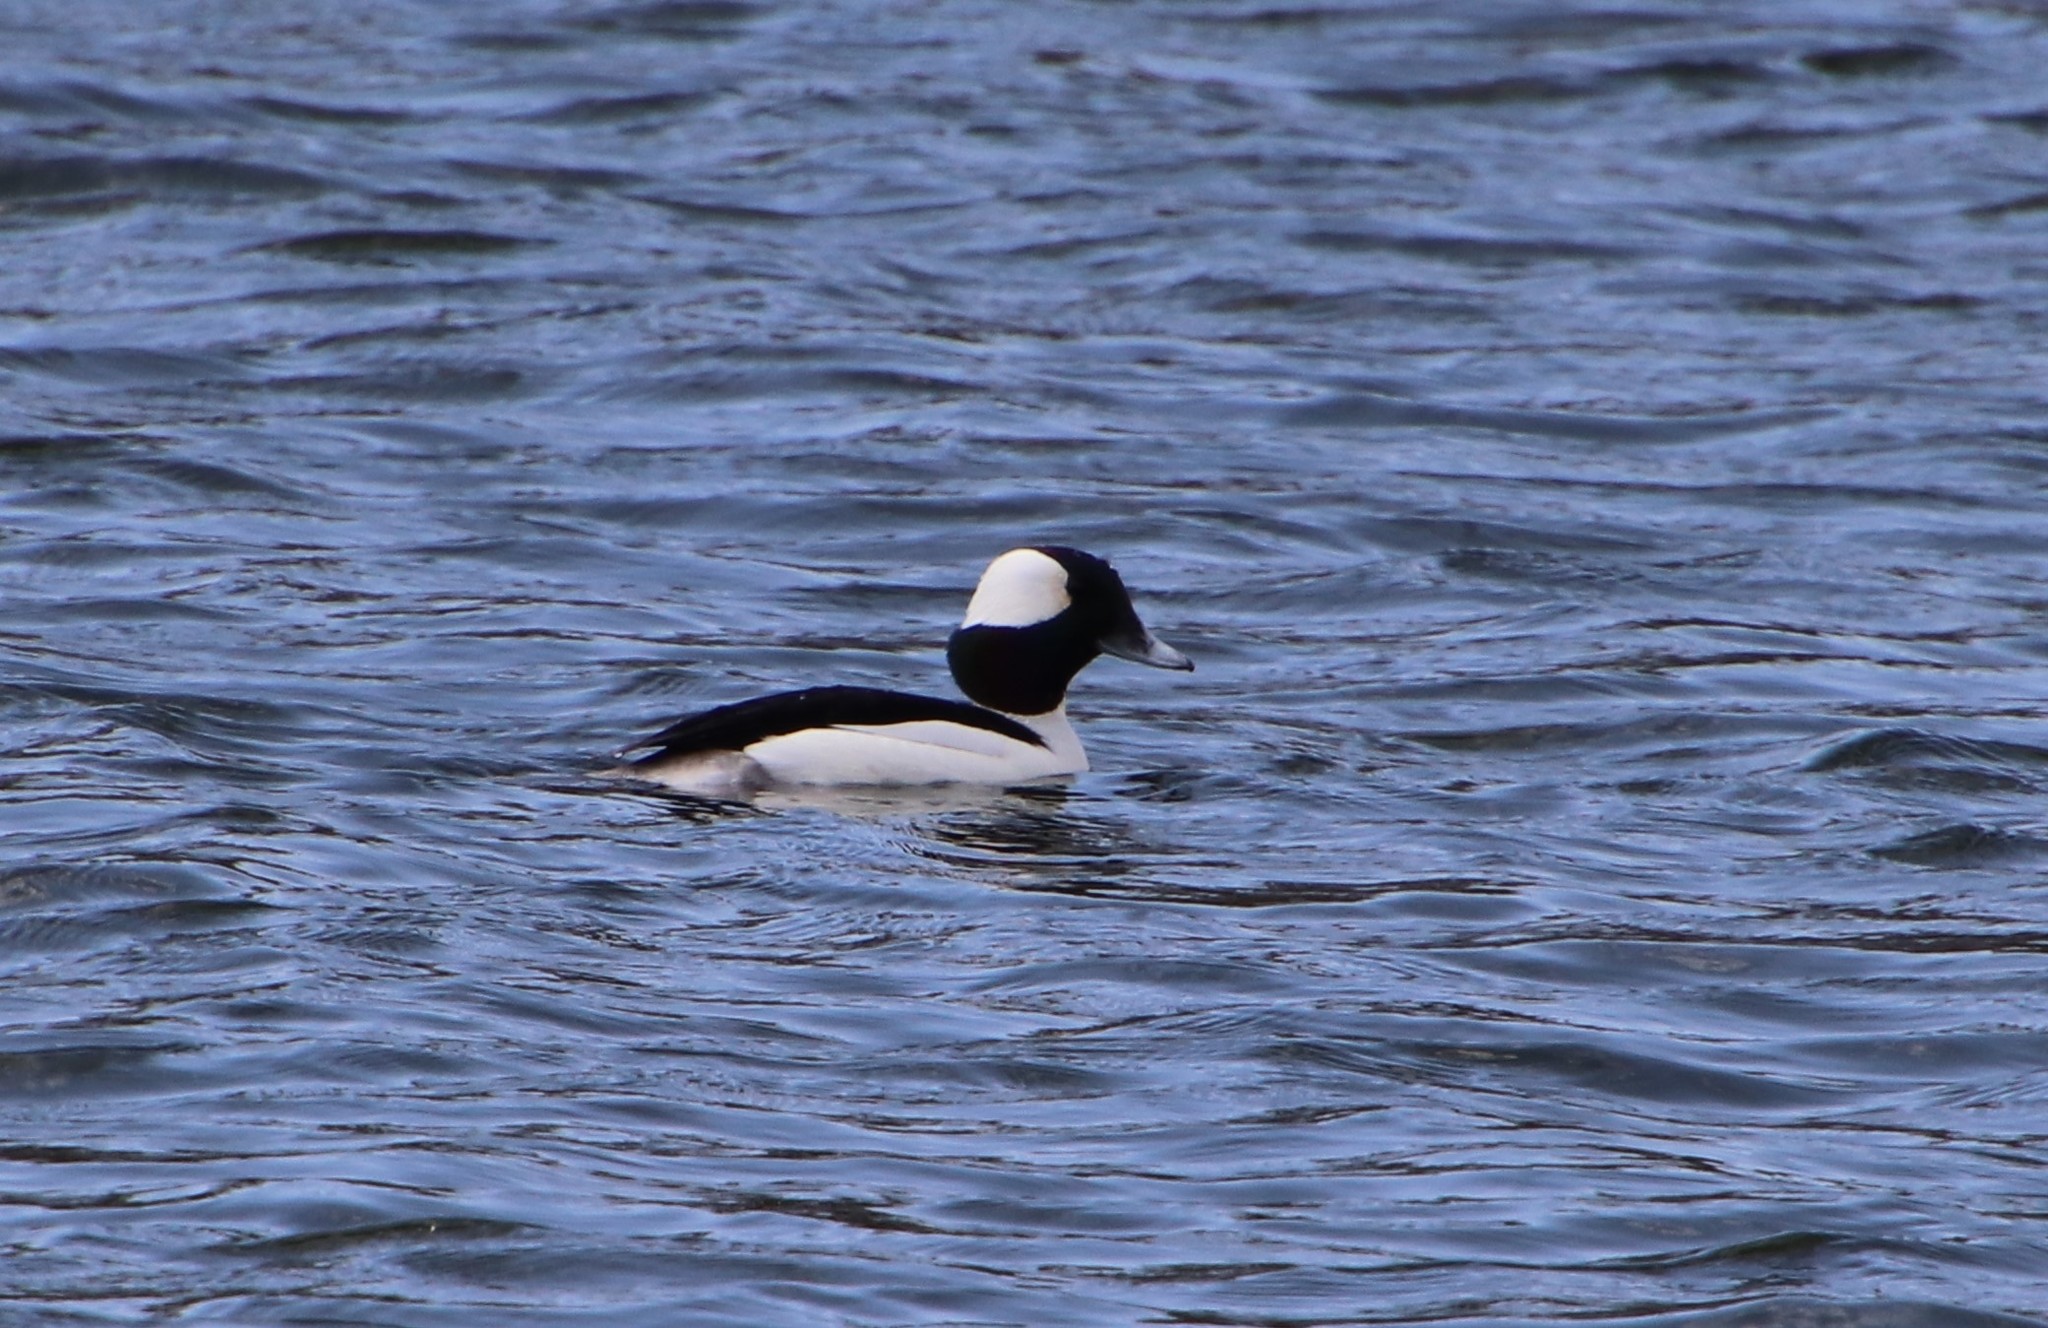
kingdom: Animalia
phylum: Chordata
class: Aves
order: Anseriformes
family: Anatidae
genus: Bucephala
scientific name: Bucephala albeola
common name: Bufflehead
